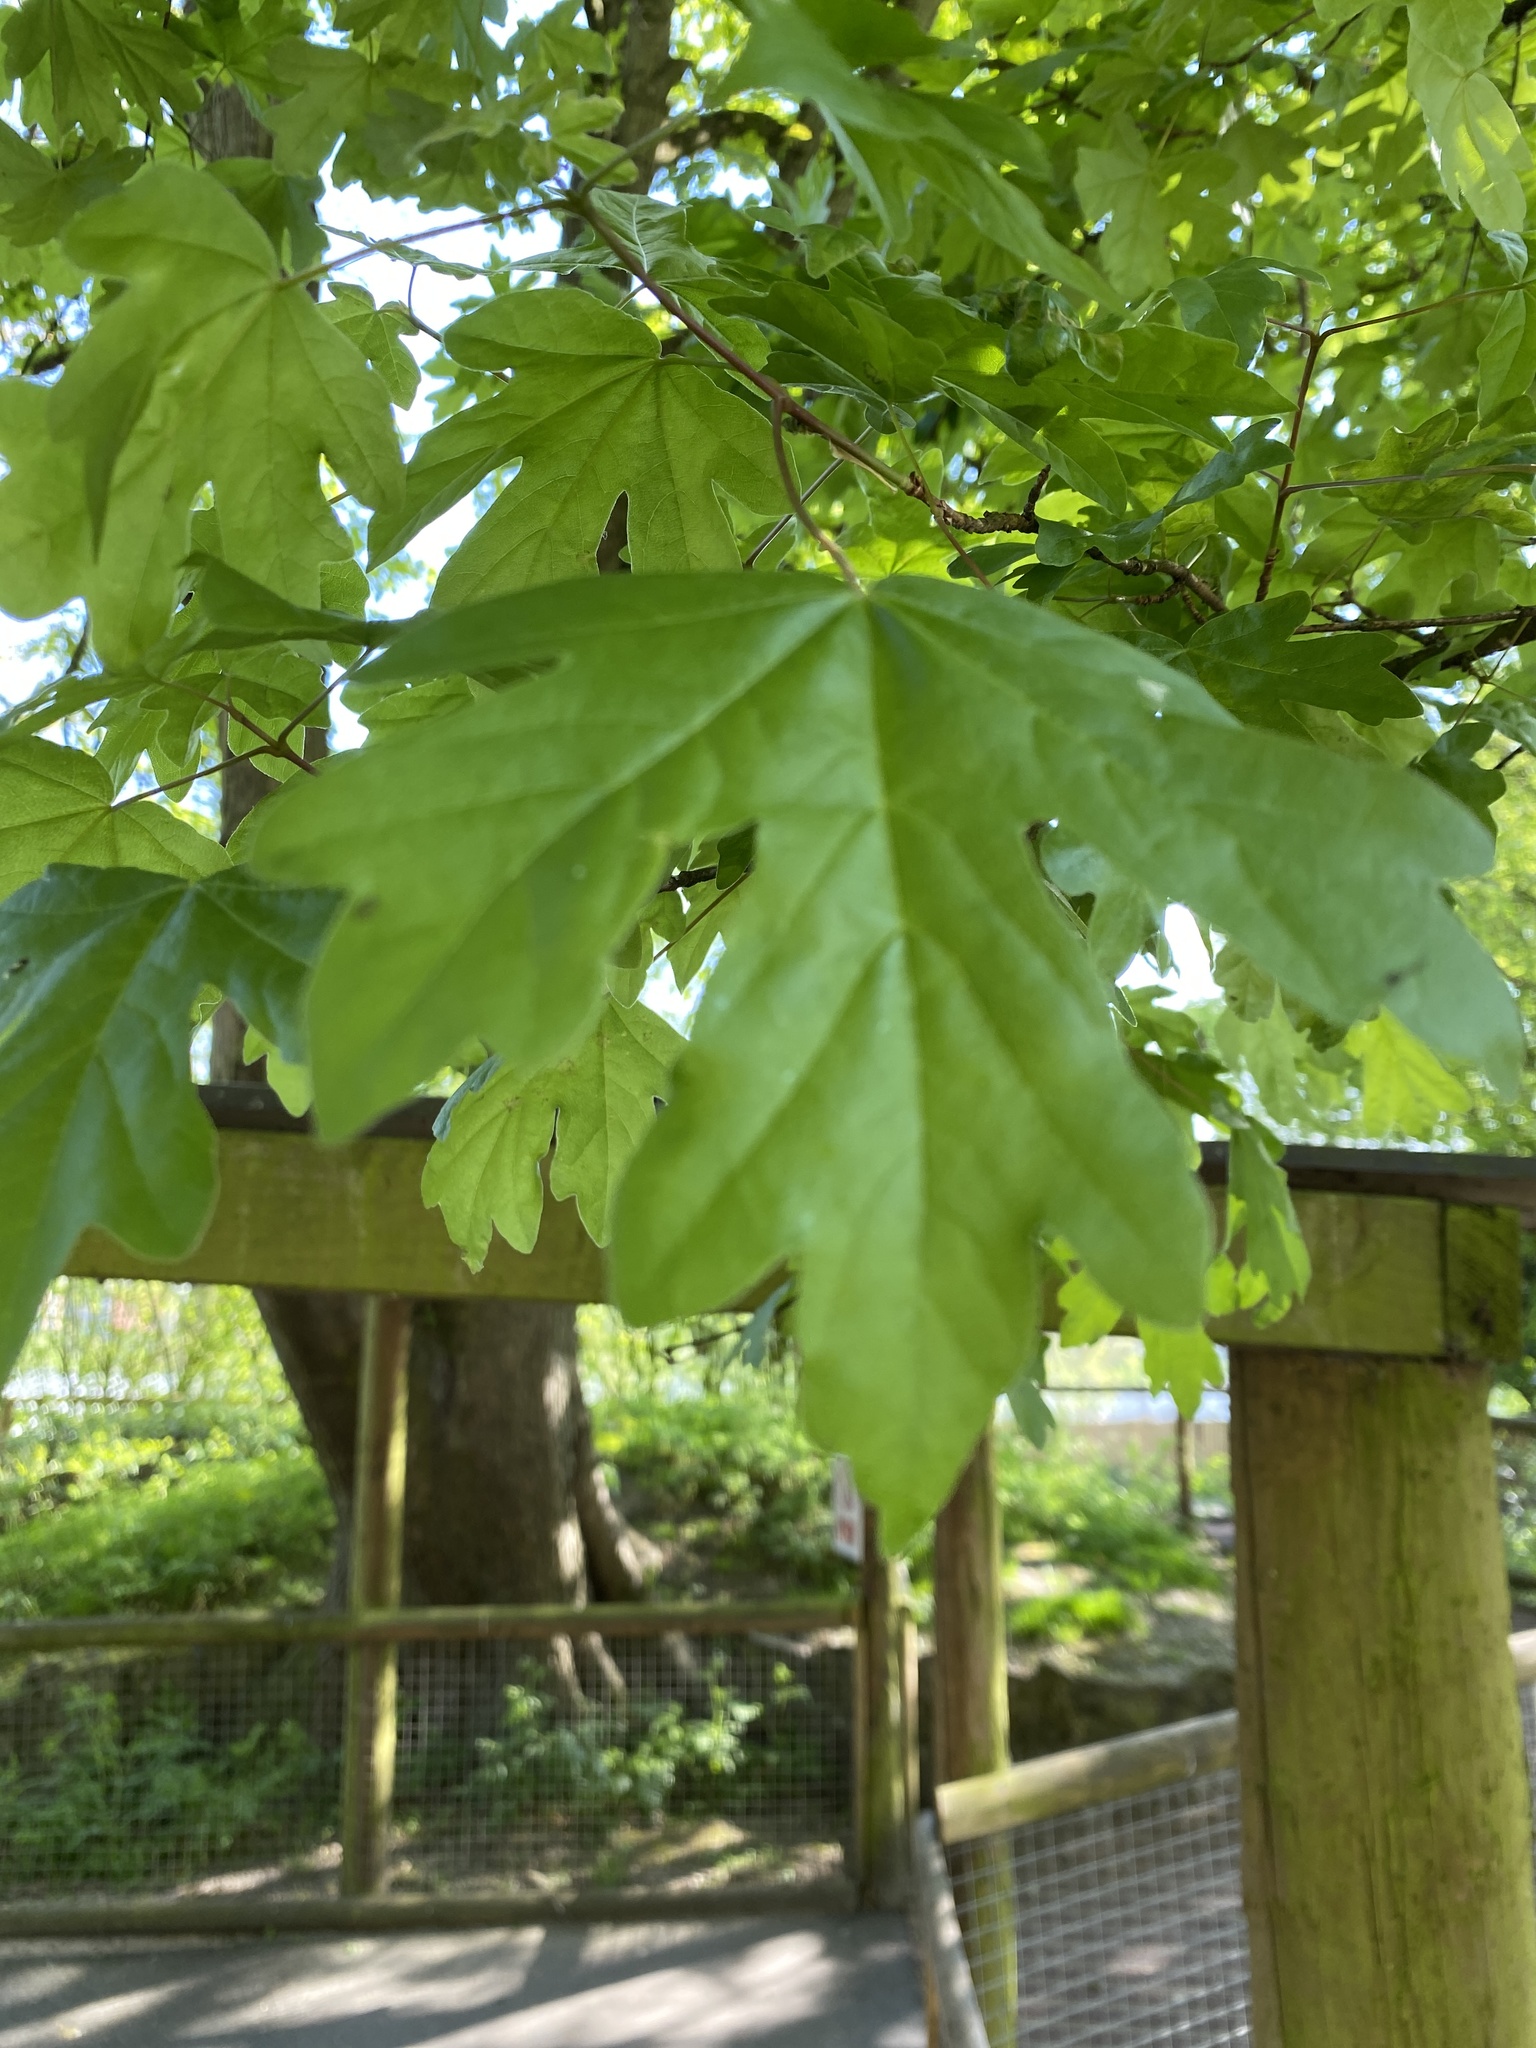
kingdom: Plantae
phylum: Tracheophyta
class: Magnoliopsida
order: Sapindales
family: Sapindaceae
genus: Acer
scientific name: Acer campestre
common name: Field maple
